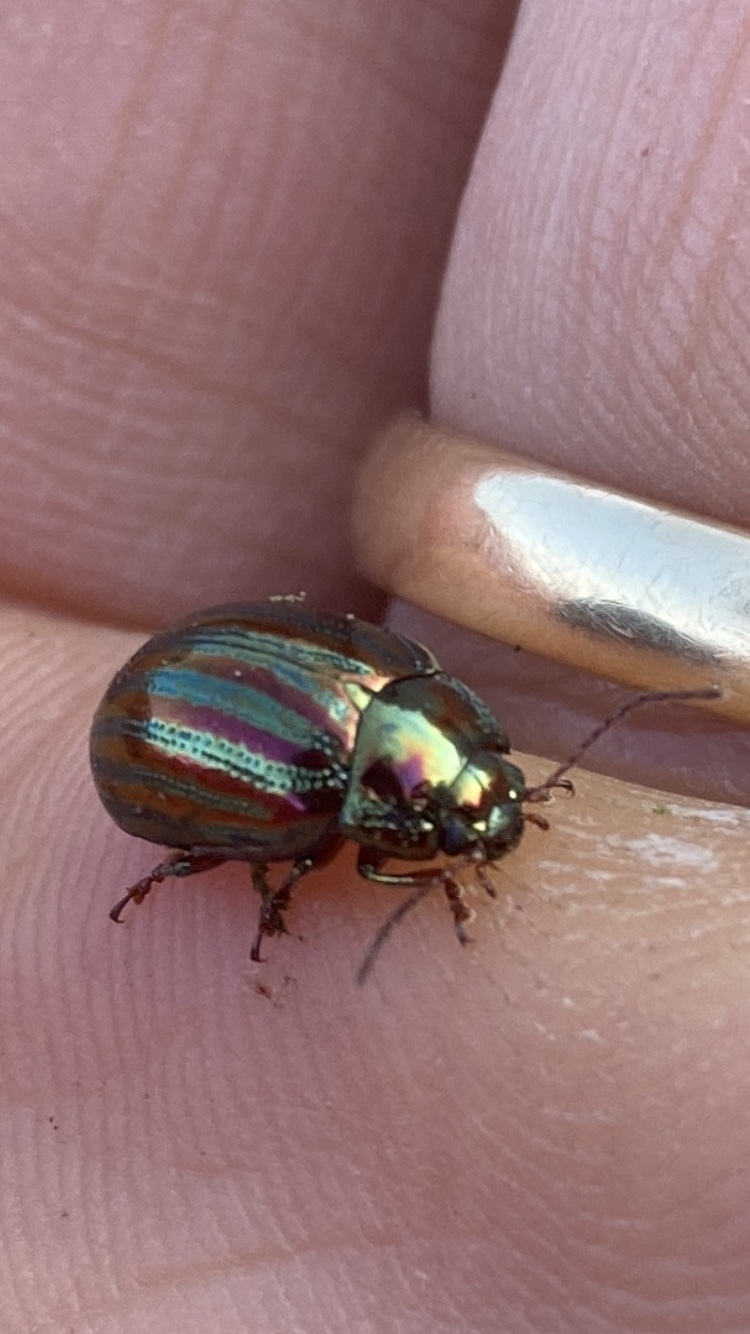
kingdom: Animalia
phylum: Arthropoda
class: Insecta
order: Coleoptera
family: Chrysomelidae
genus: Chrysolina
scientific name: Chrysolina americana
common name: Rosemary beetle
